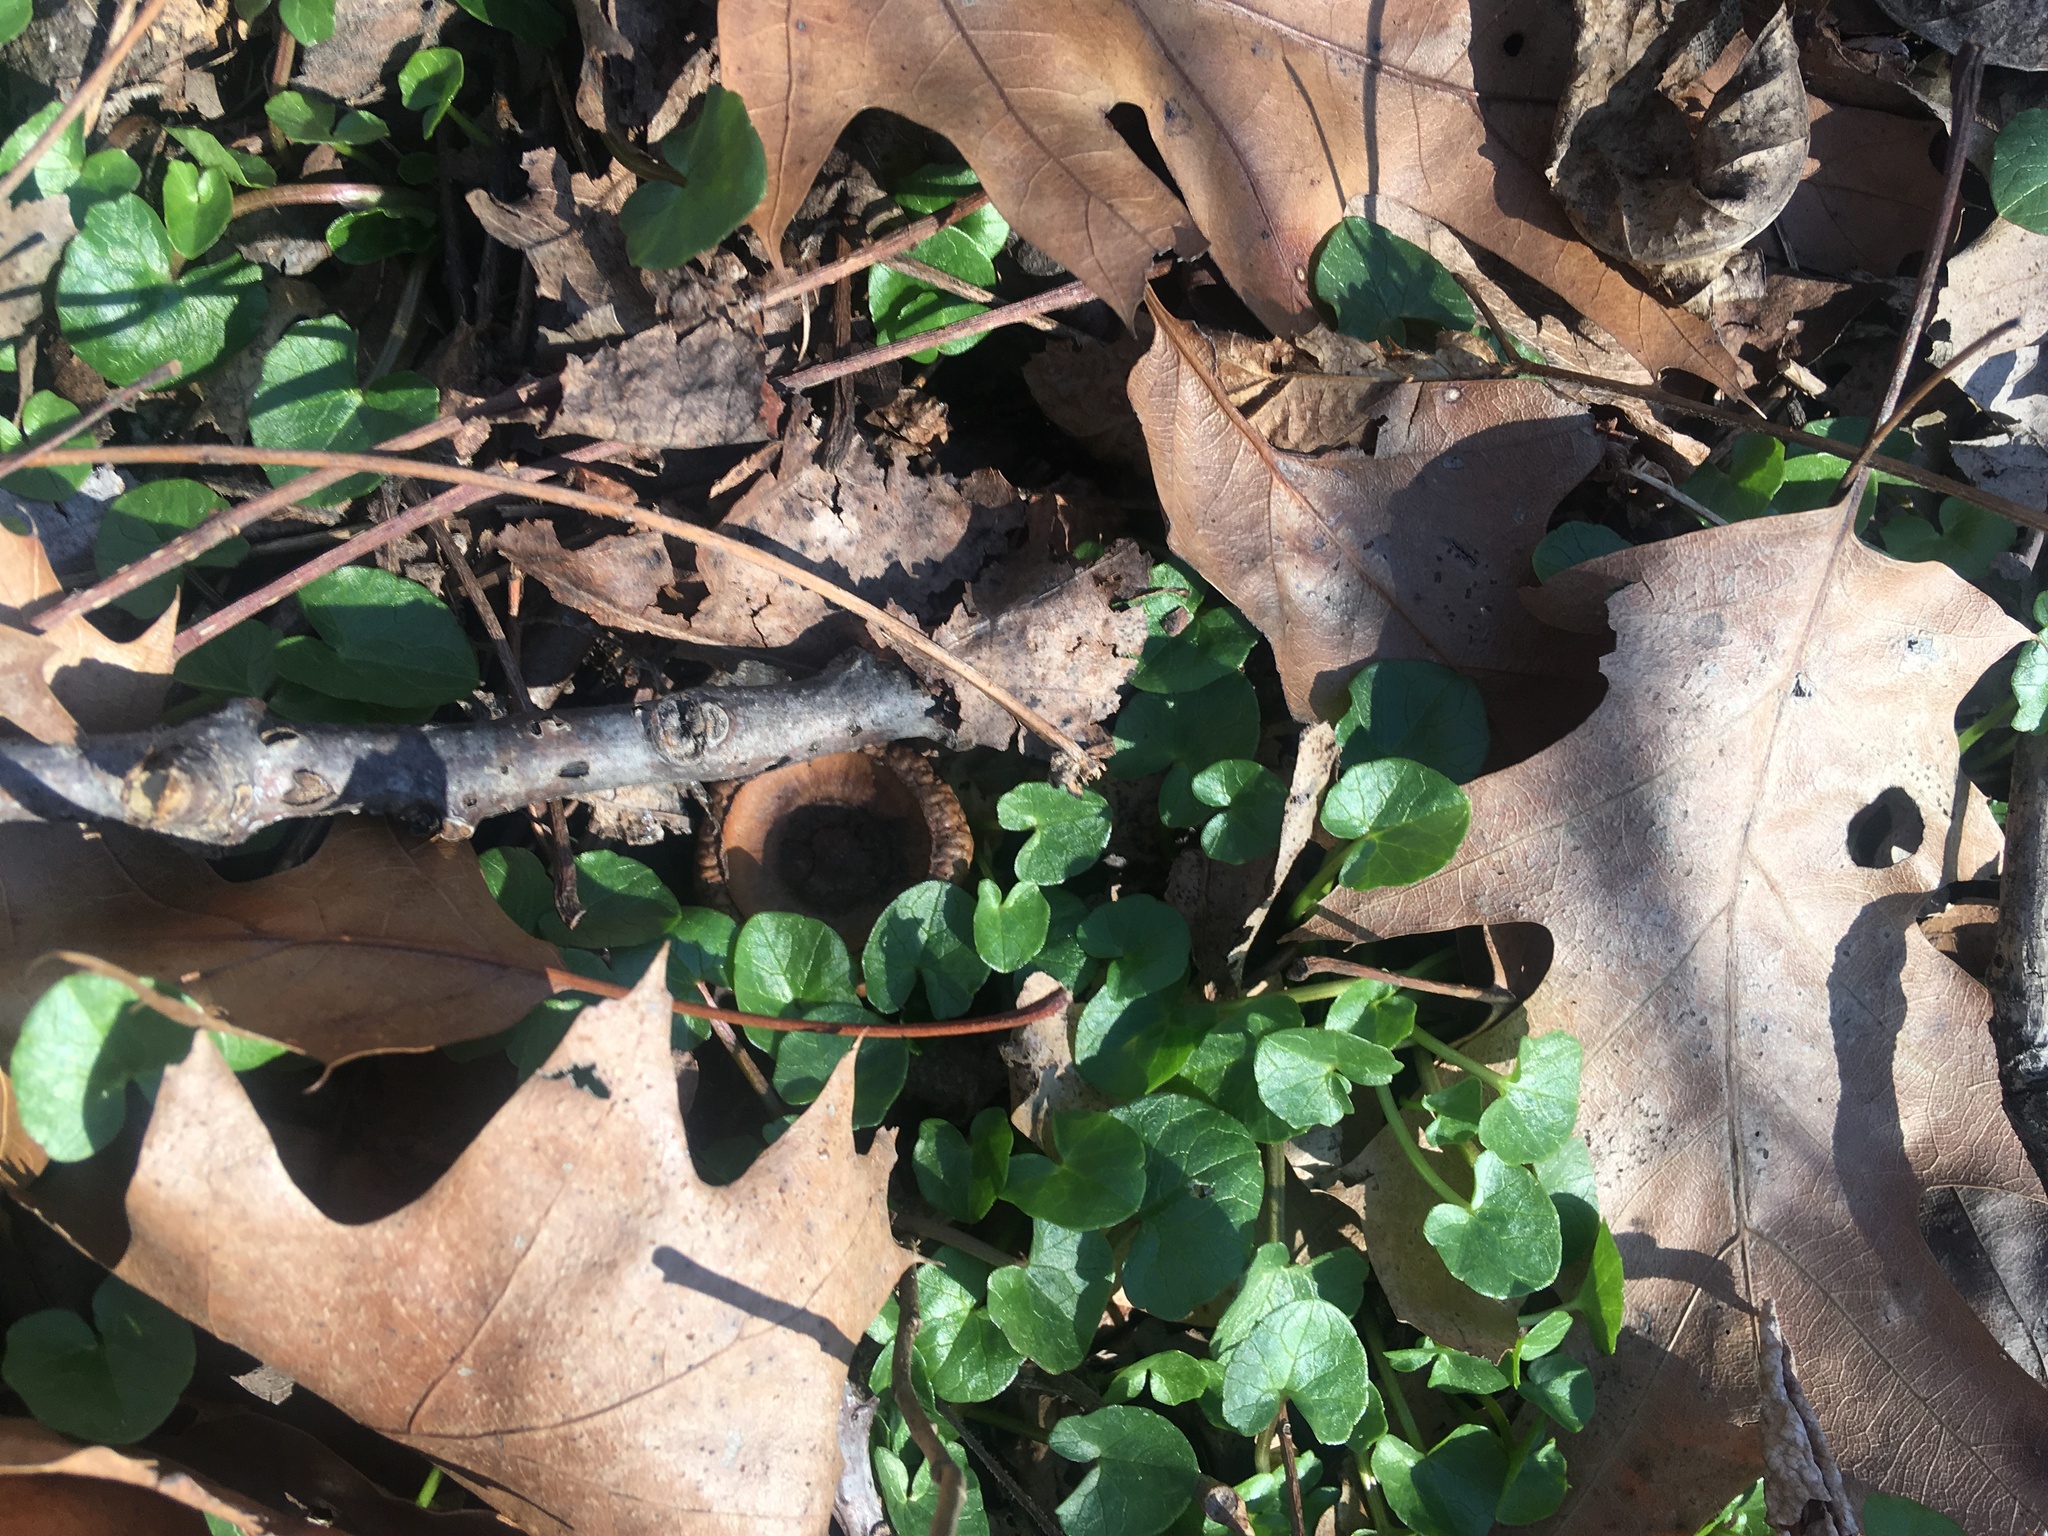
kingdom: Plantae
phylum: Tracheophyta
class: Magnoliopsida
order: Ranunculales
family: Ranunculaceae
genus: Ficaria
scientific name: Ficaria verna
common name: Lesser celandine
